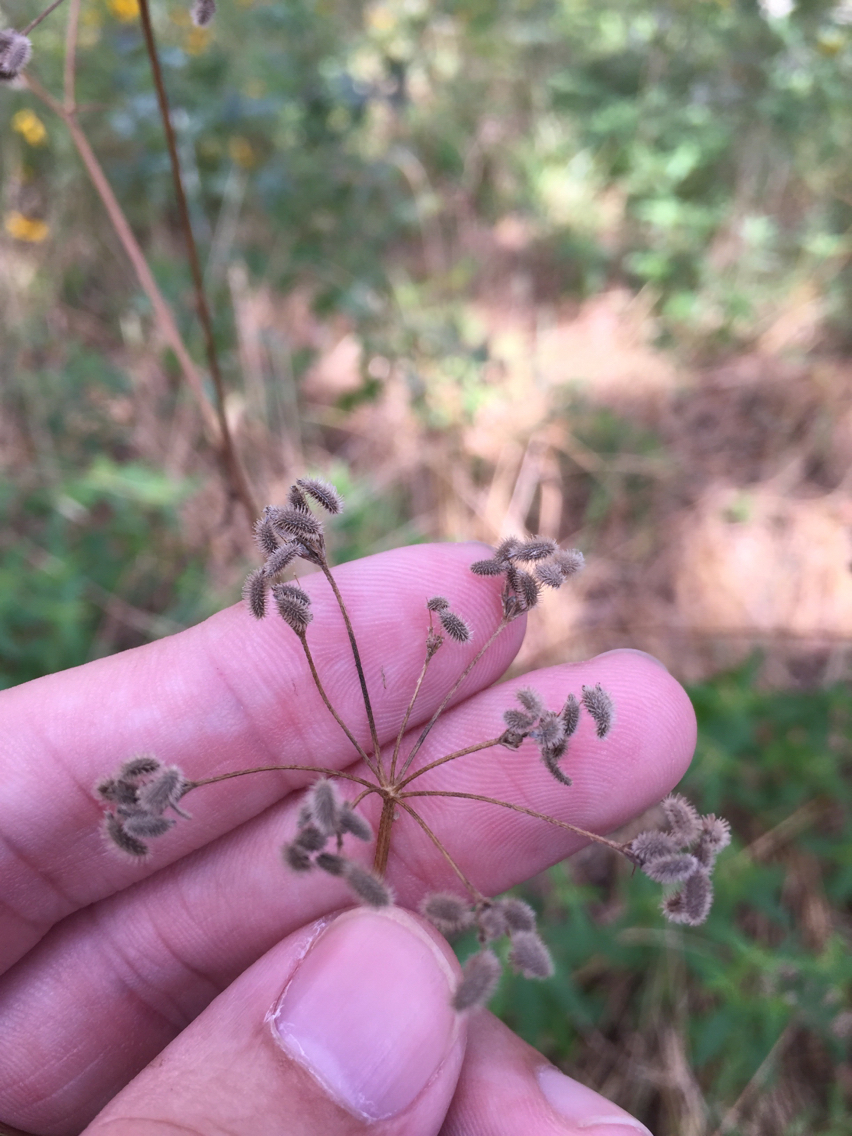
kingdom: Plantae
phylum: Tracheophyta
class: Magnoliopsida
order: Apiales
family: Apiaceae
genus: Torilis
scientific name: Torilis arvensis
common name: Spreading hedge-parsley
